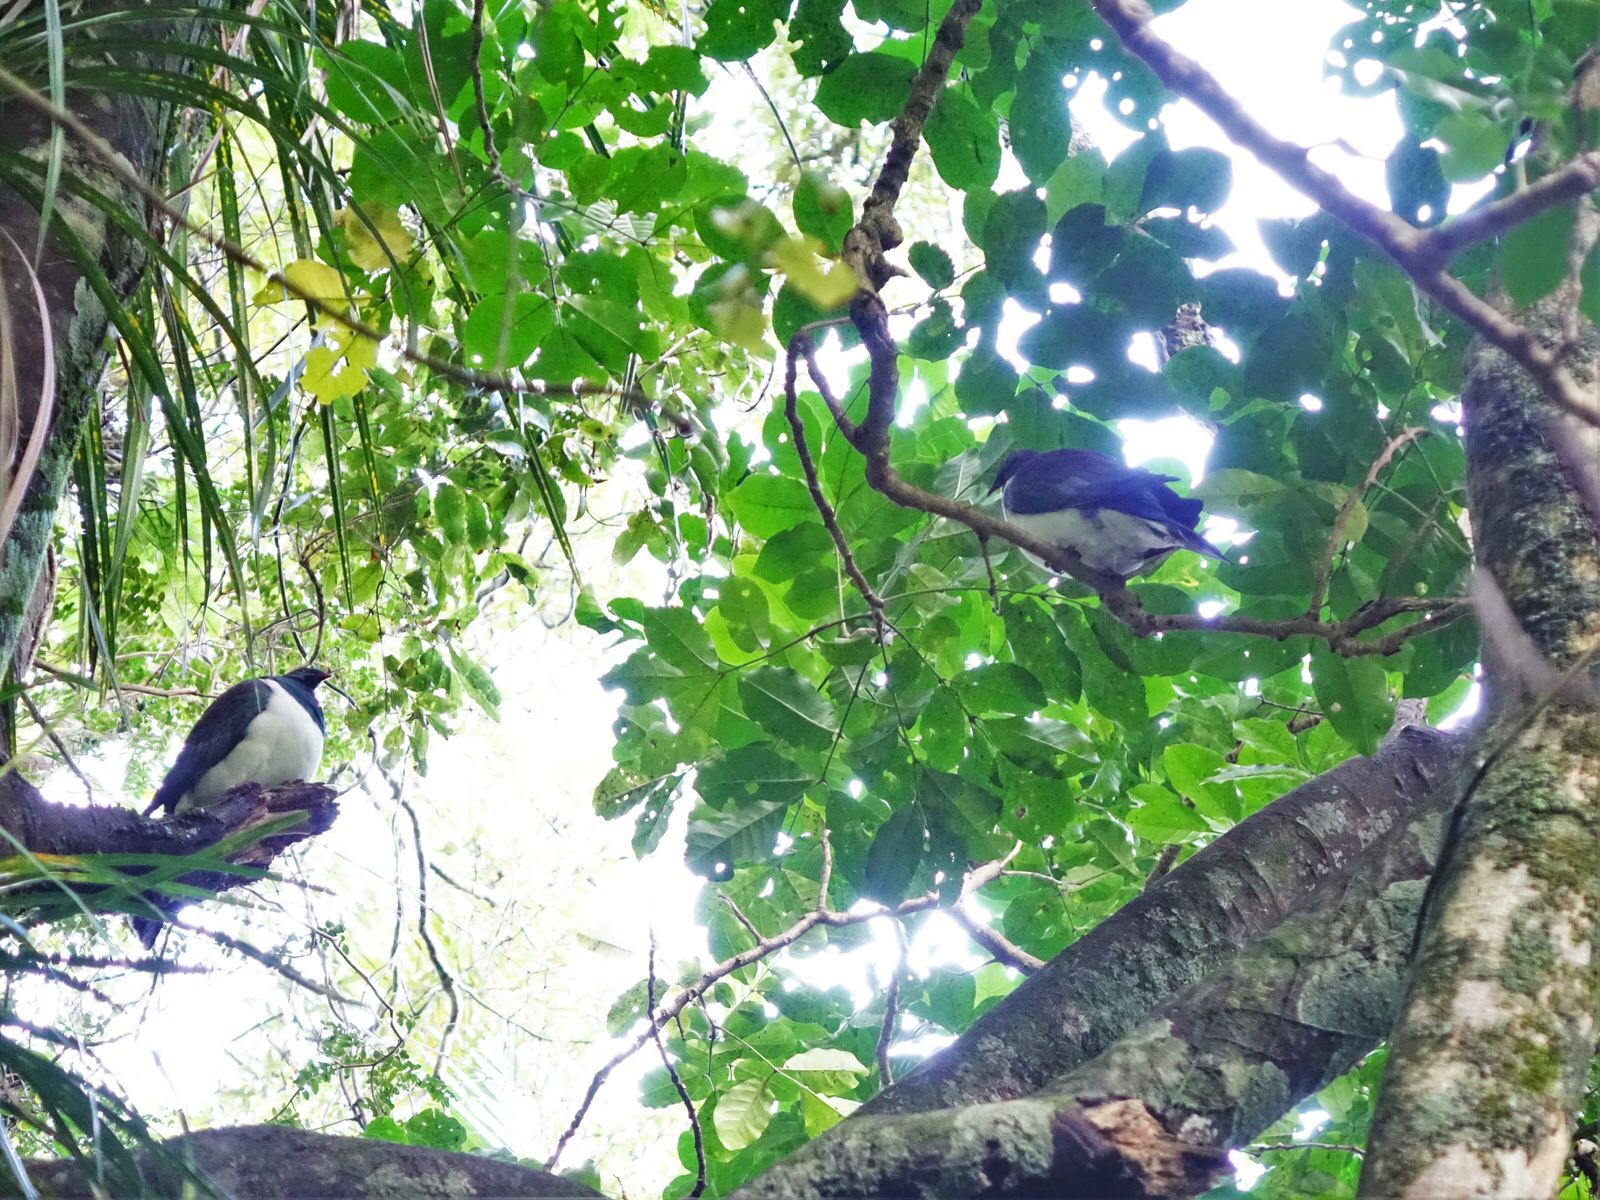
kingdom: Animalia
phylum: Chordata
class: Aves
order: Columbiformes
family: Columbidae
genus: Hemiphaga
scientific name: Hemiphaga novaeseelandiae
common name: New zealand pigeon
